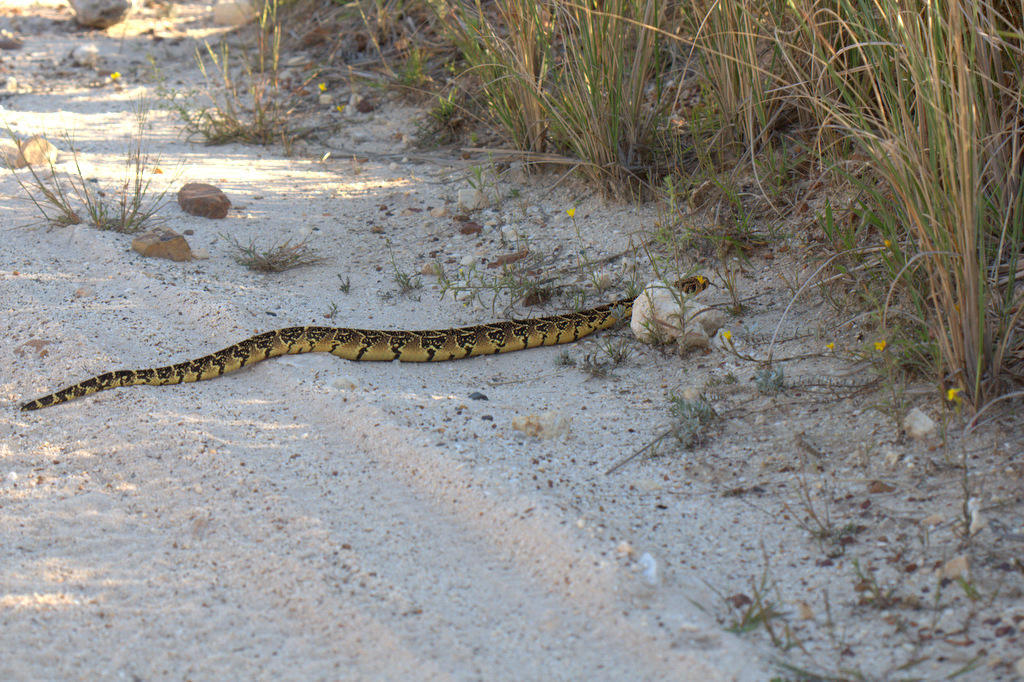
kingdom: Animalia
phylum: Chordata
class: Squamata
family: Viperidae
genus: Bitis
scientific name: Bitis arietans
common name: Puff adder
